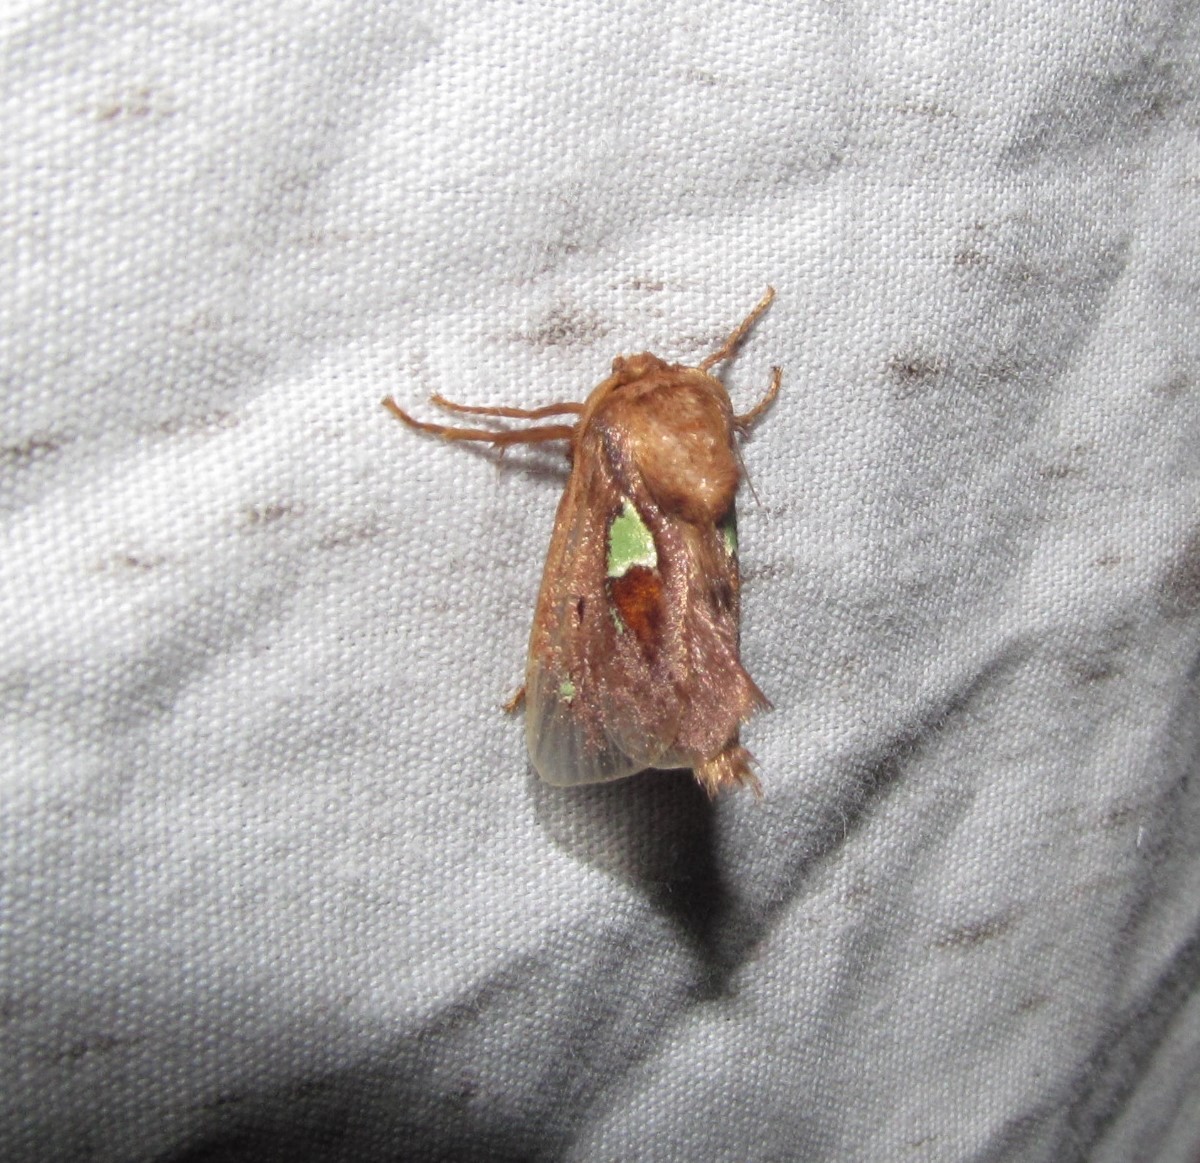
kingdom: Animalia
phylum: Arthropoda
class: Insecta
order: Lepidoptera
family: Limacodidae
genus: Euclea
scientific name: Euclea delphinii
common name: Spiny oak-slug moth
